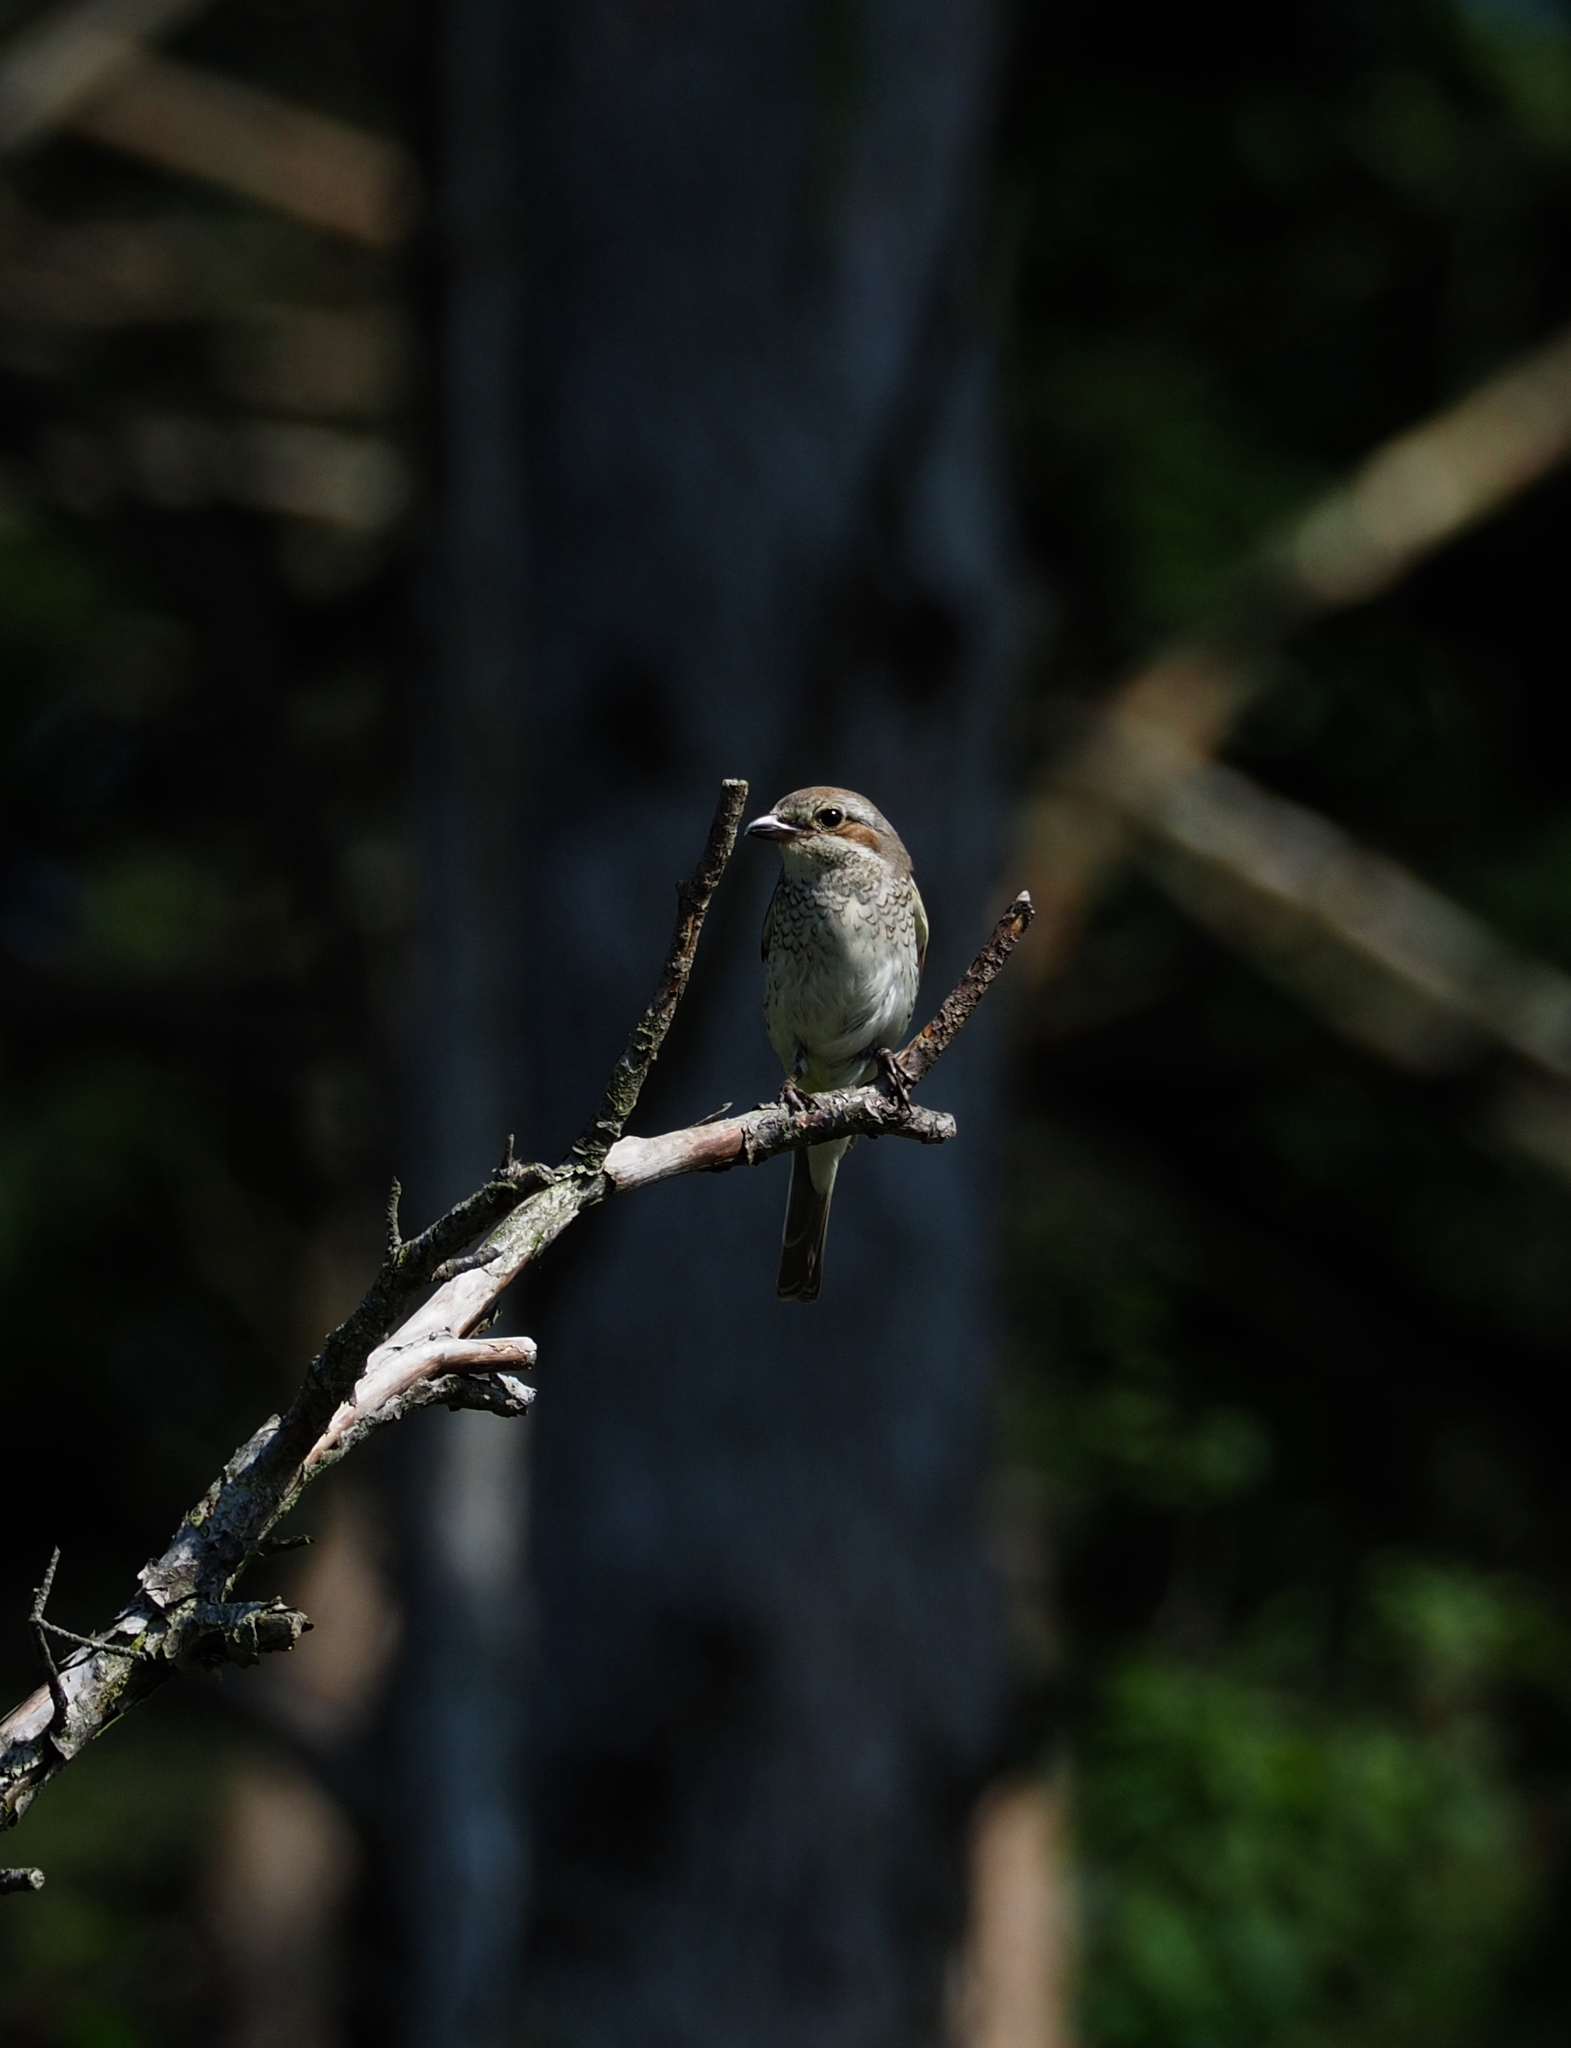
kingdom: Animalia
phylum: Chordata
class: Aves
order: Passeriformes
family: Laniidae
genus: Lanius
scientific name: Lanius collurio
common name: Red-backed shrike
